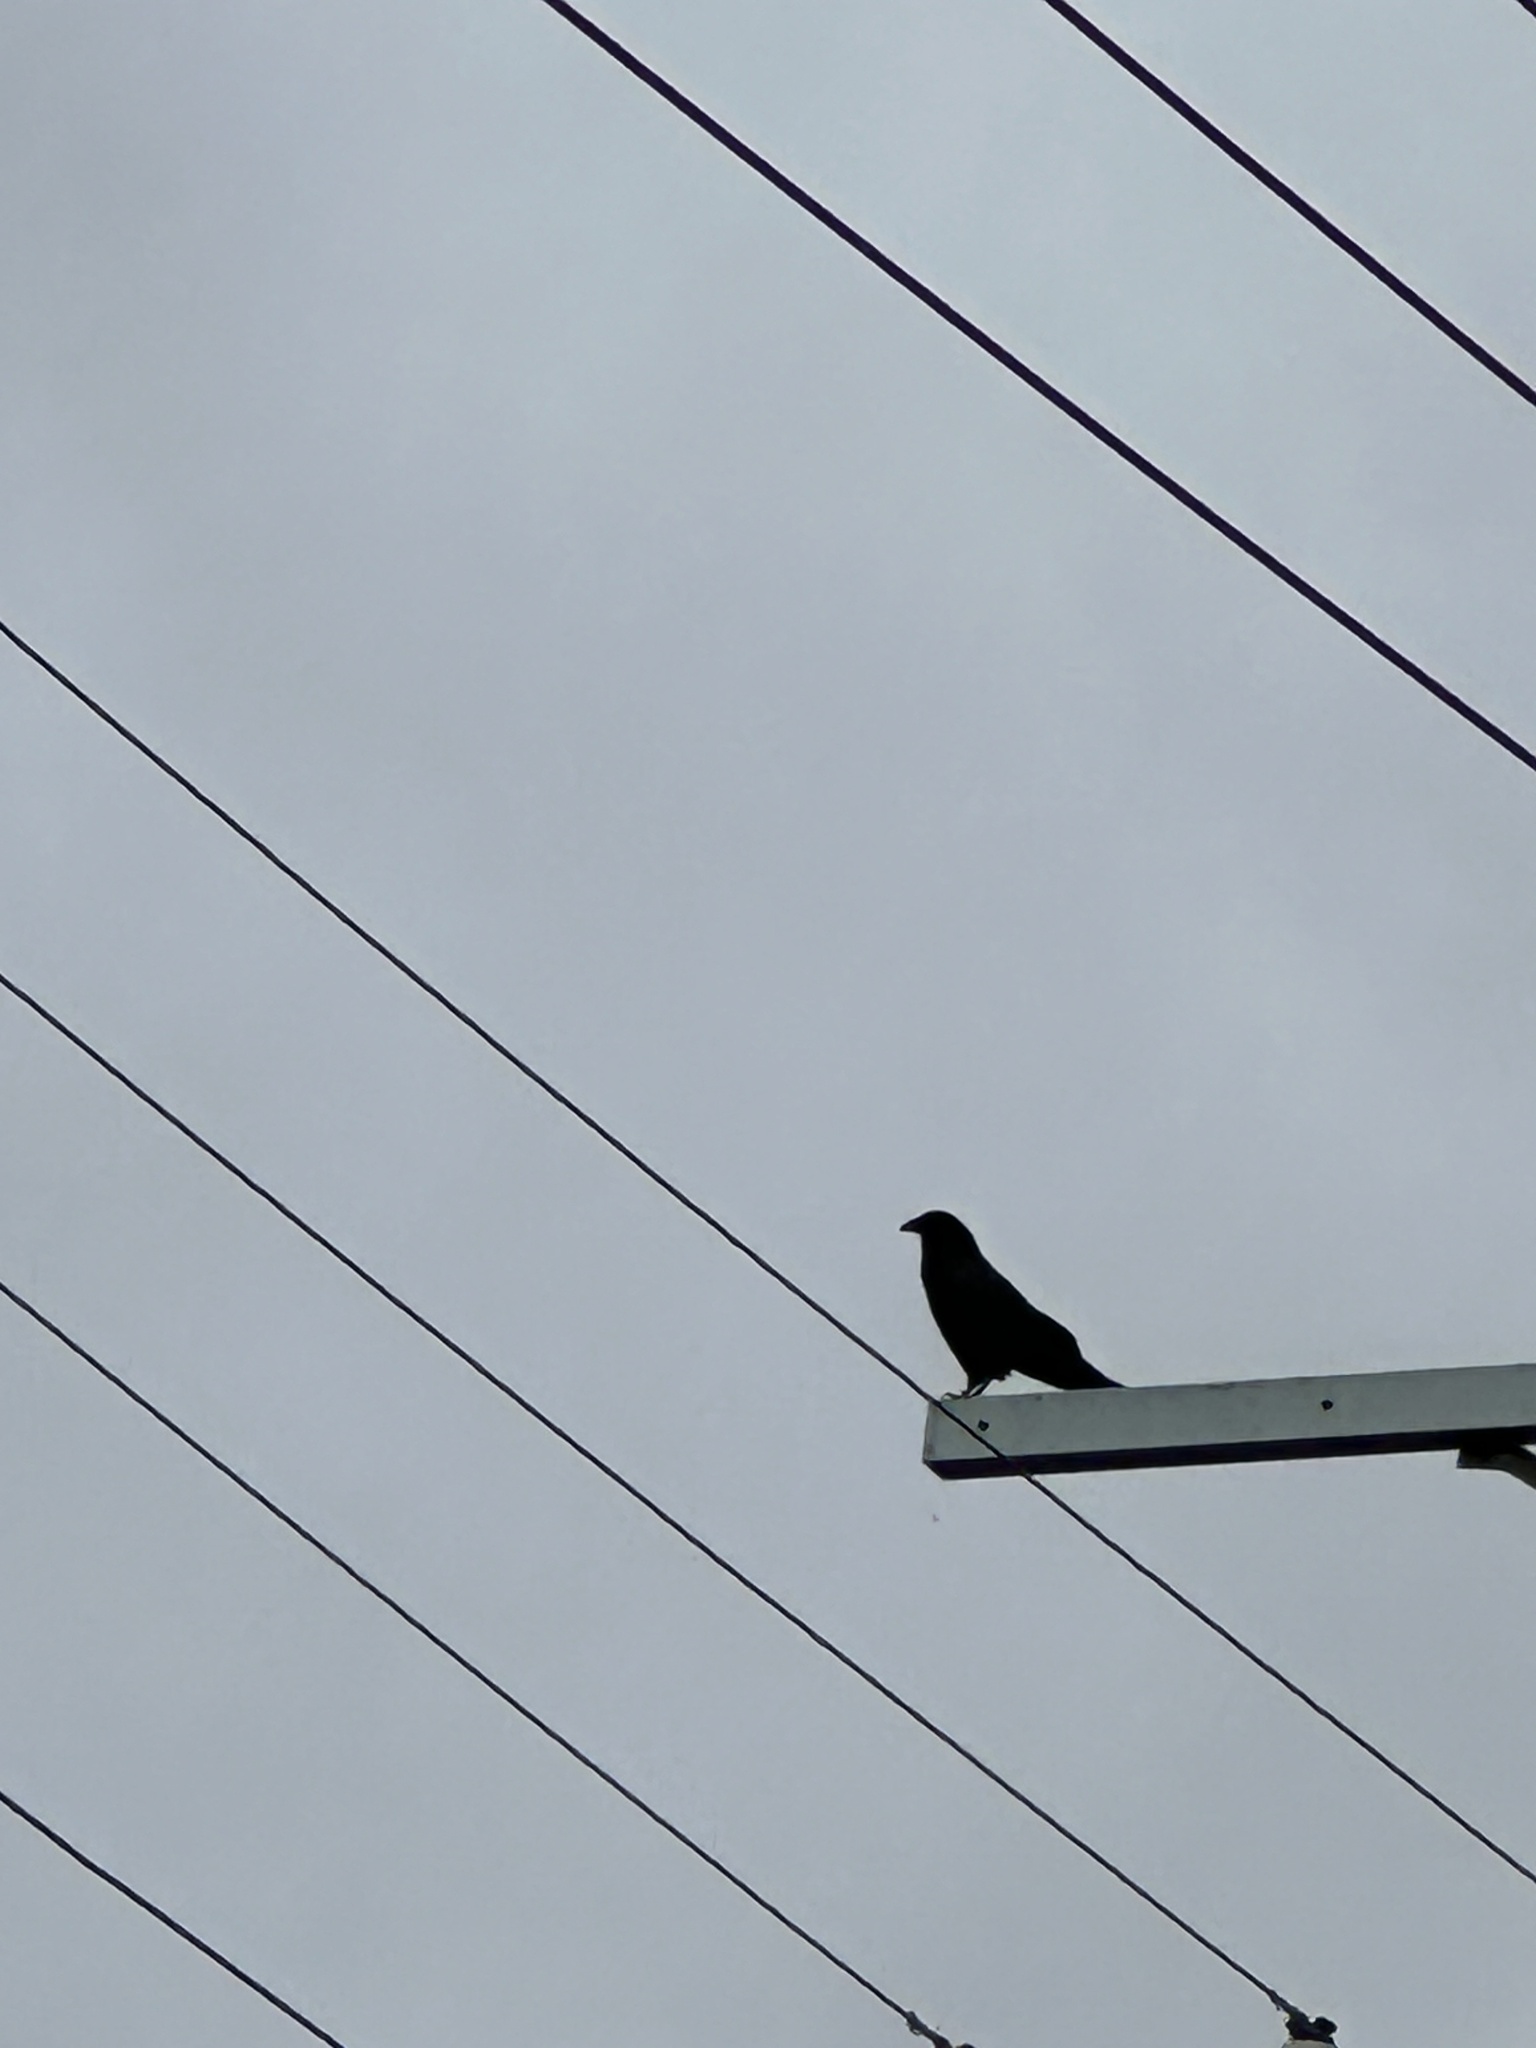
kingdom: Animalia
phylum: Chordata
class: Aves
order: Passeriformes
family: Corvidae
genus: Corvus
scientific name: Corvus corax
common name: Common raven
